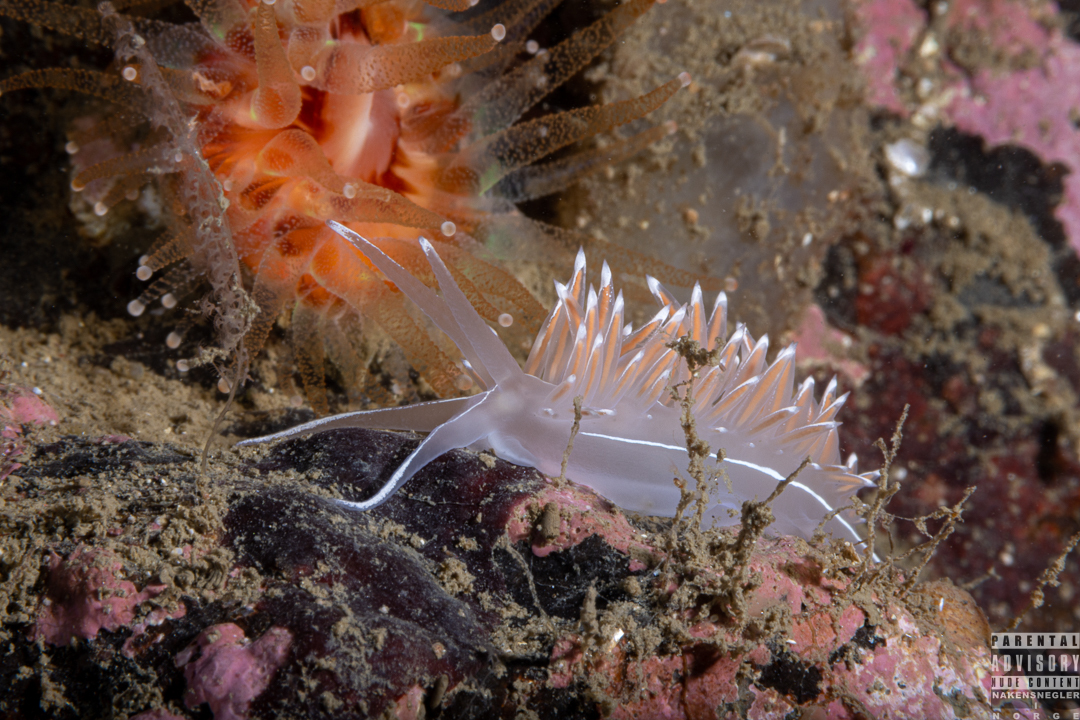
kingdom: Animalia
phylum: Mollusca
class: Gastropoda
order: Nudibranchia
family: Coryphellidae
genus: Coryphella
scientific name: Coryphella lineata
